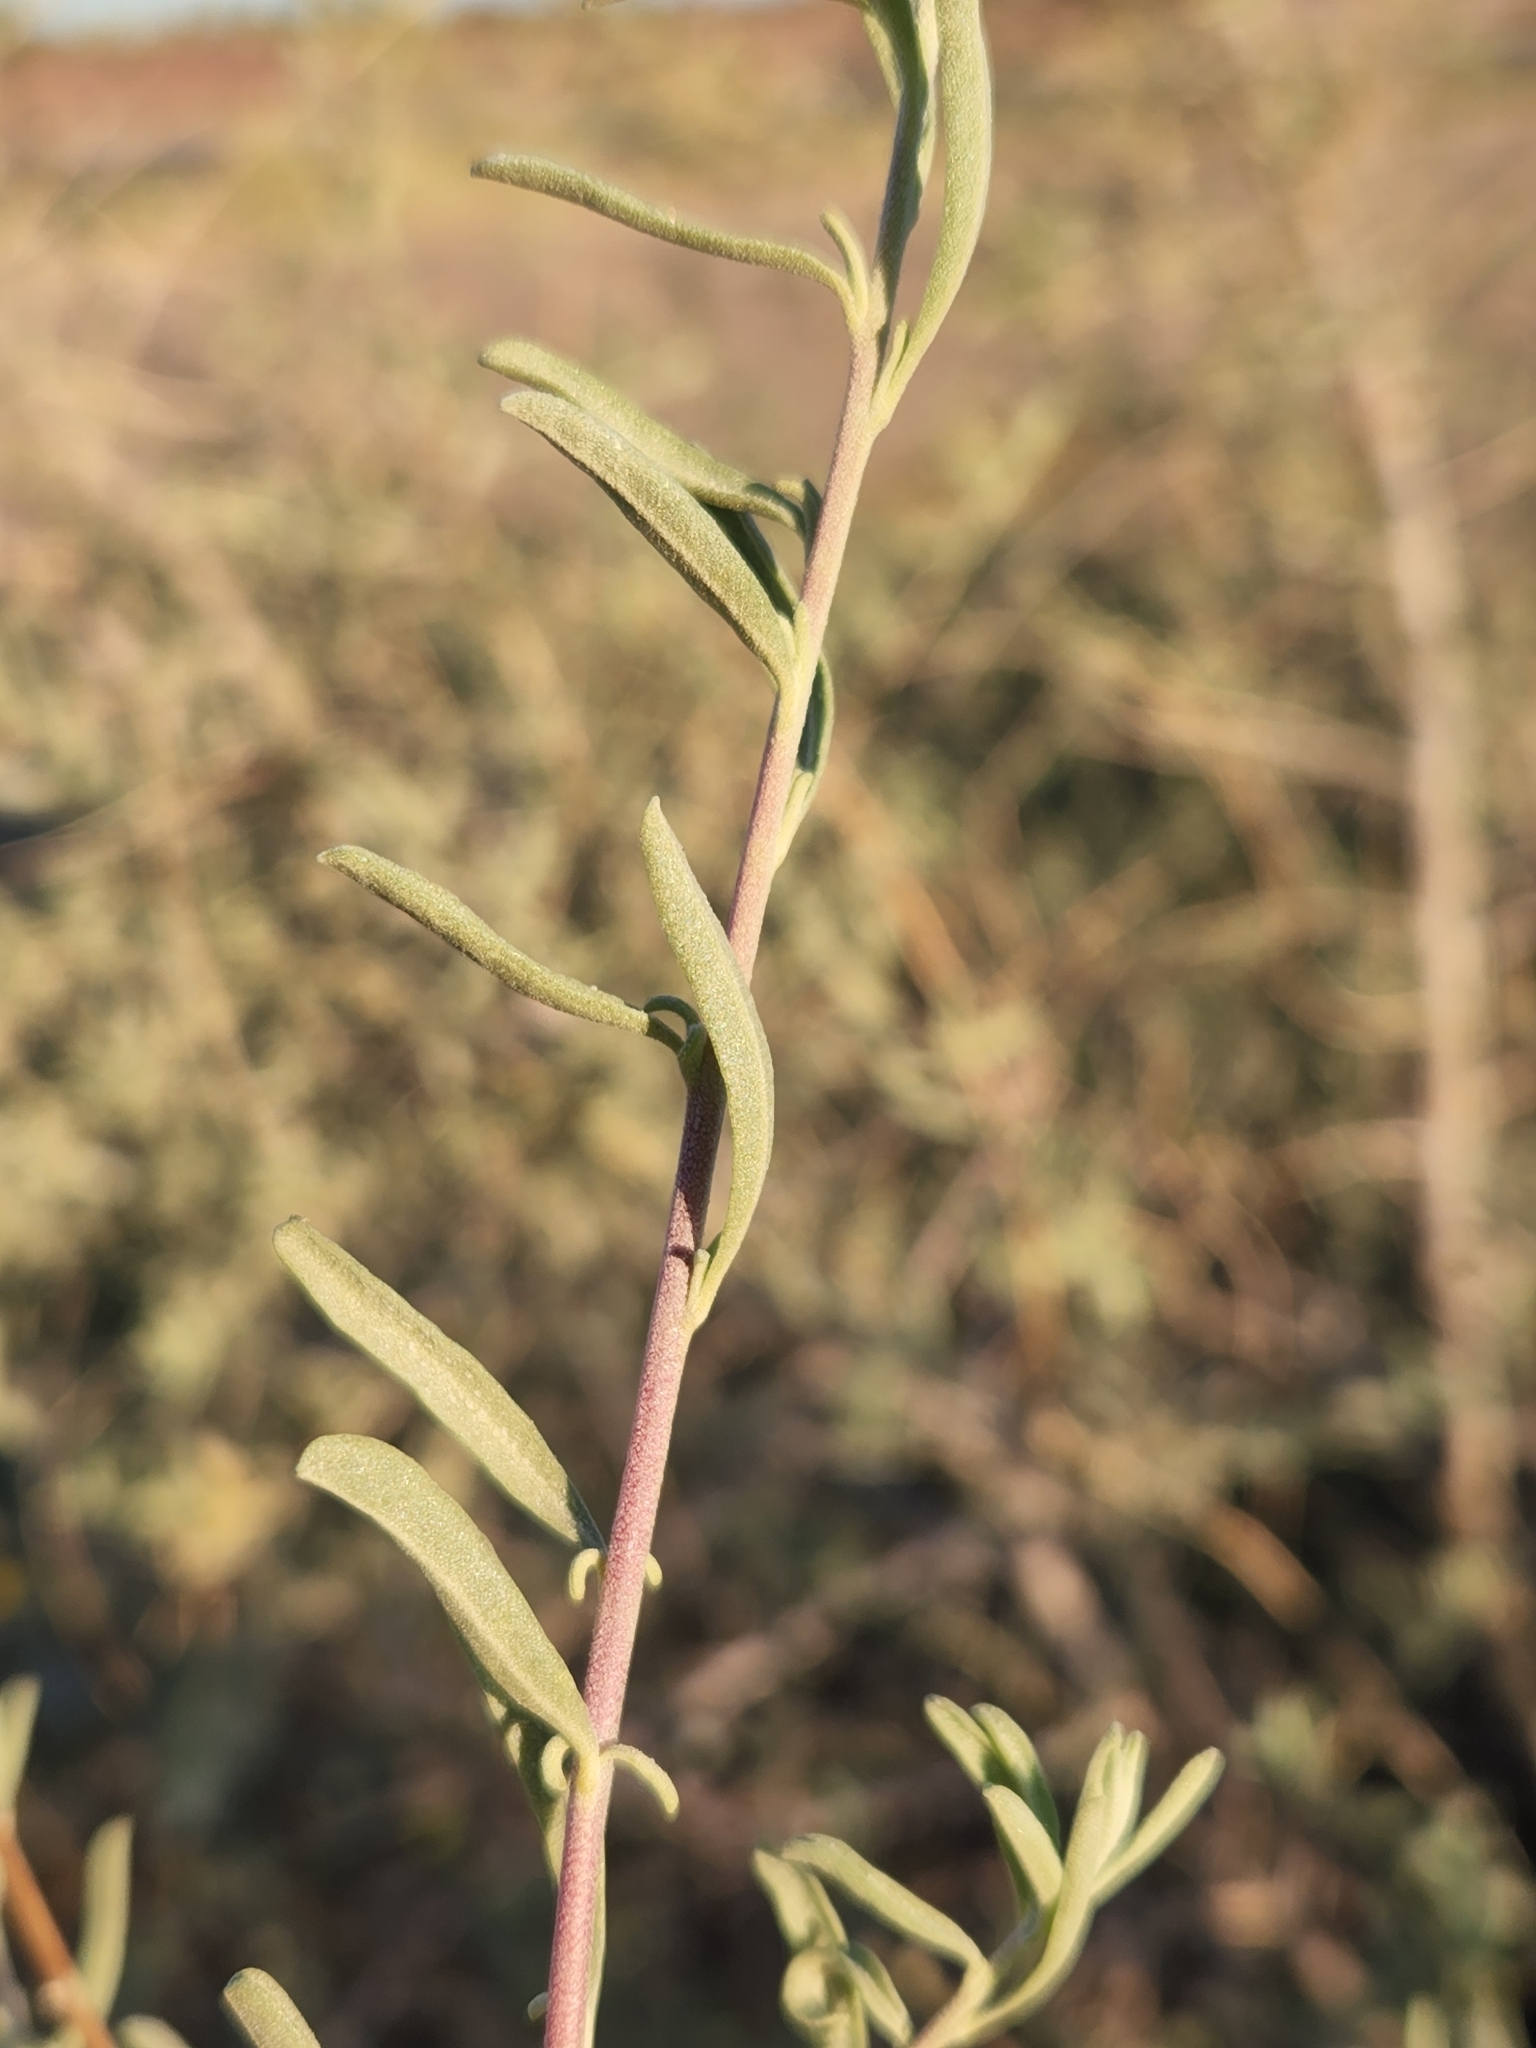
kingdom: Plantae
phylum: Tracheophyta
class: Magnoliopsida
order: Caryophyllales
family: Amaranthaceae
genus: Atriplex
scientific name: Atriplex canescens
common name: Four-wing saltbush
